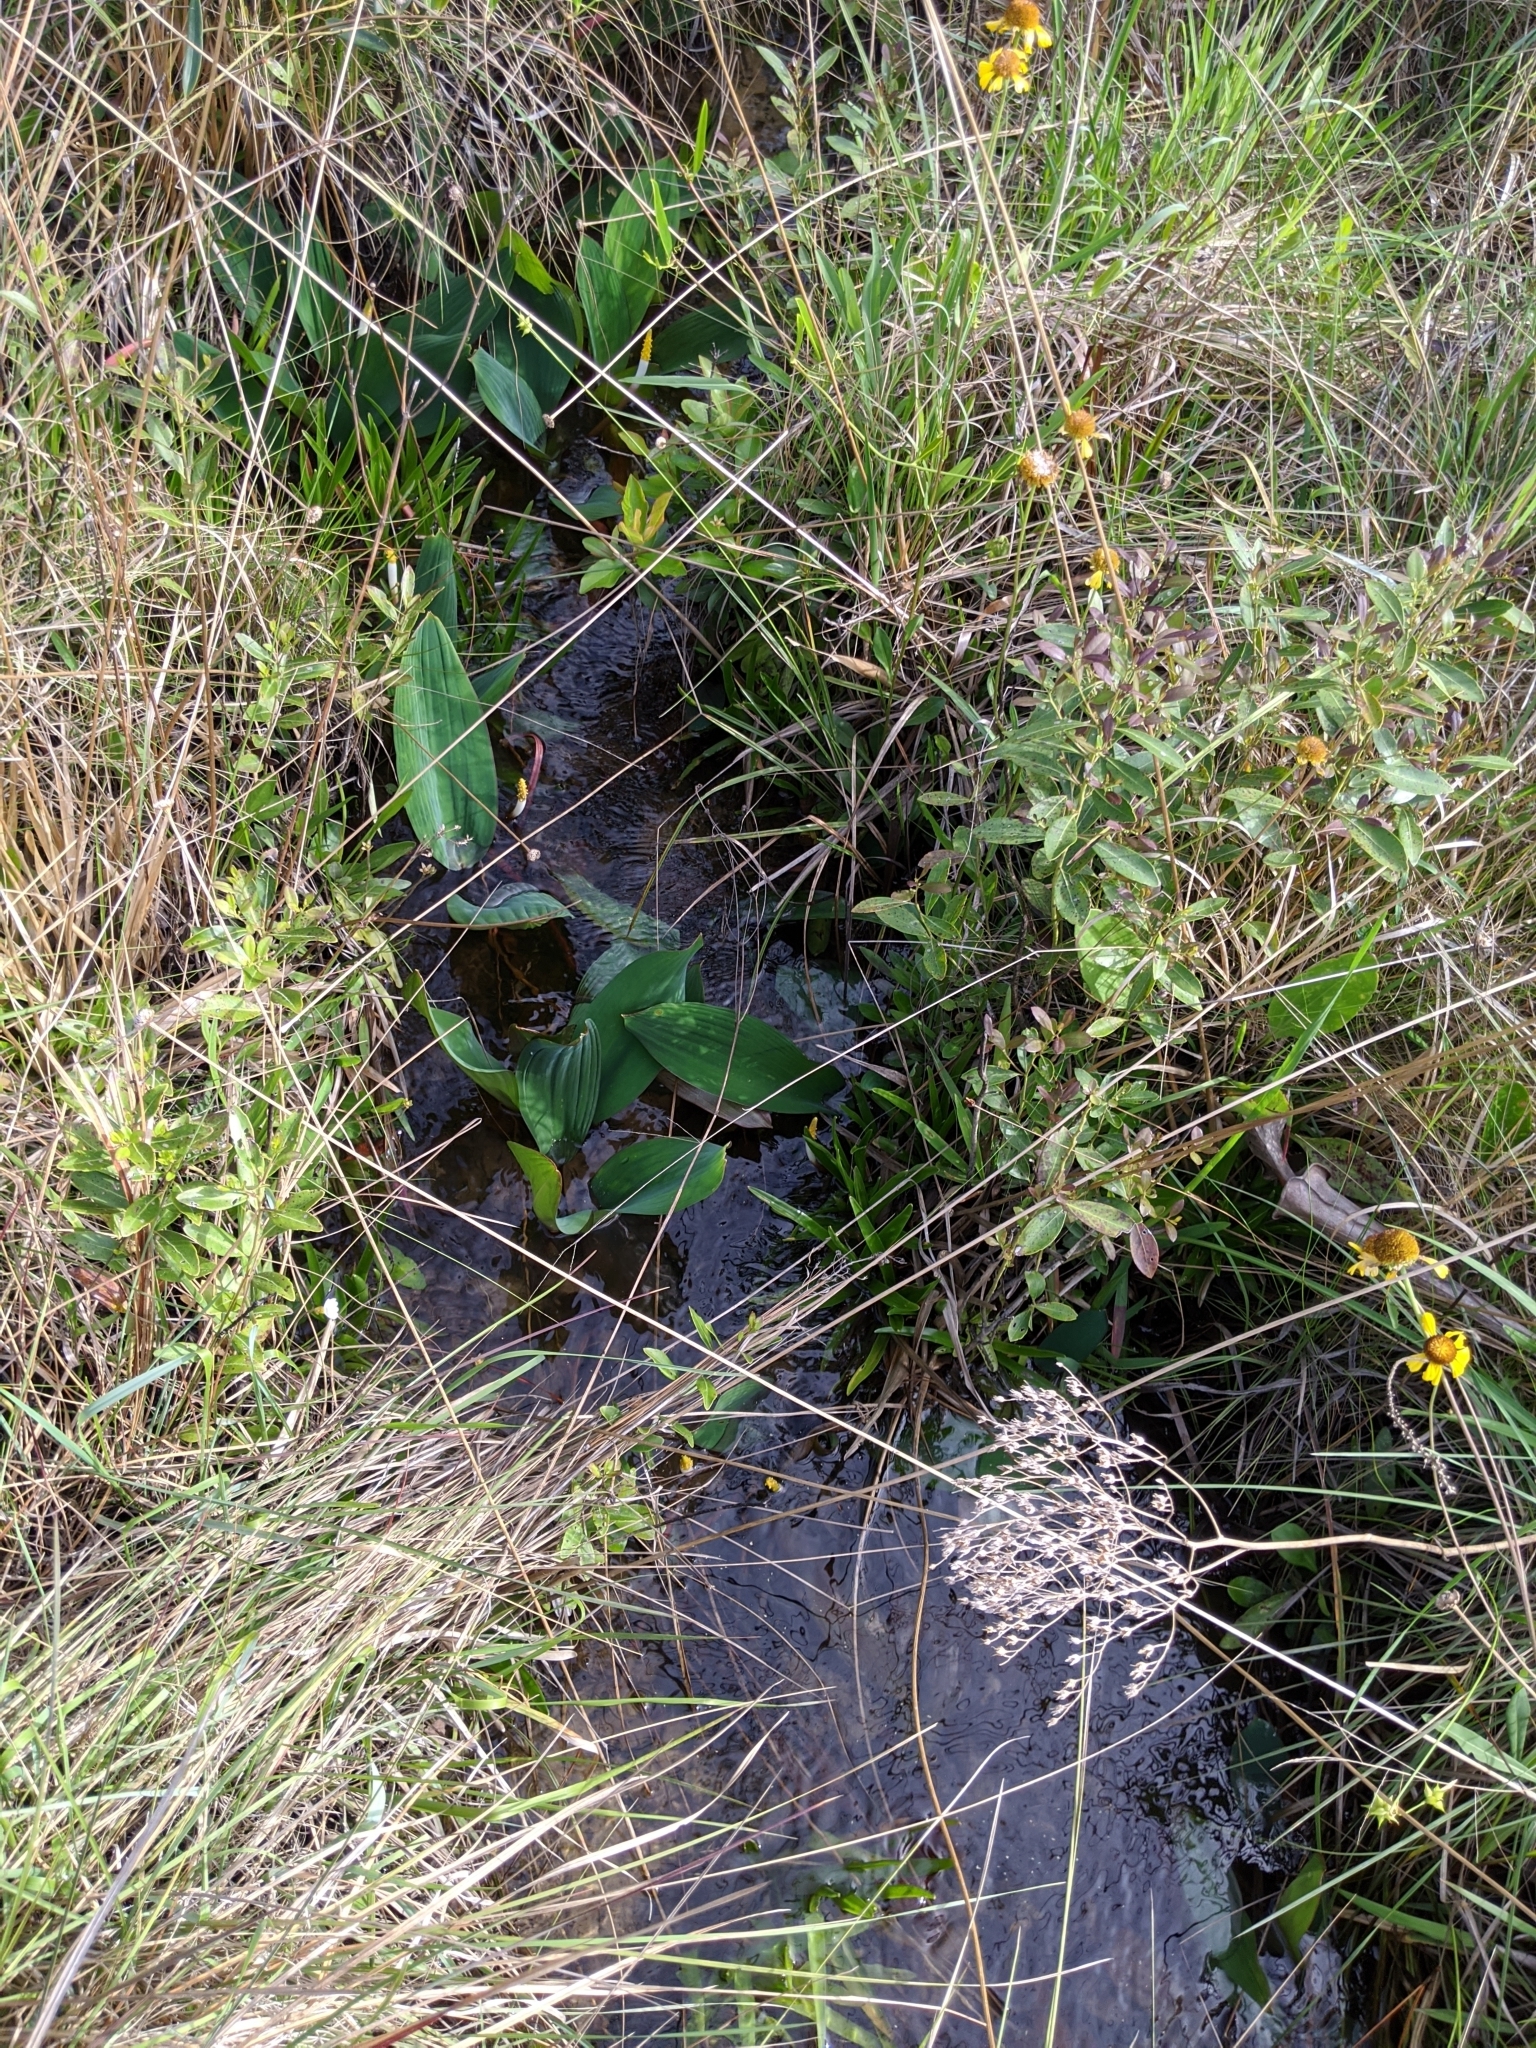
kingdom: Plantae
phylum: Tracheophyta
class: Liliopsida
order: Alismatales
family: Araceae
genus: Orontium
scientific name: Orontium aquaticum
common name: Golden-club
